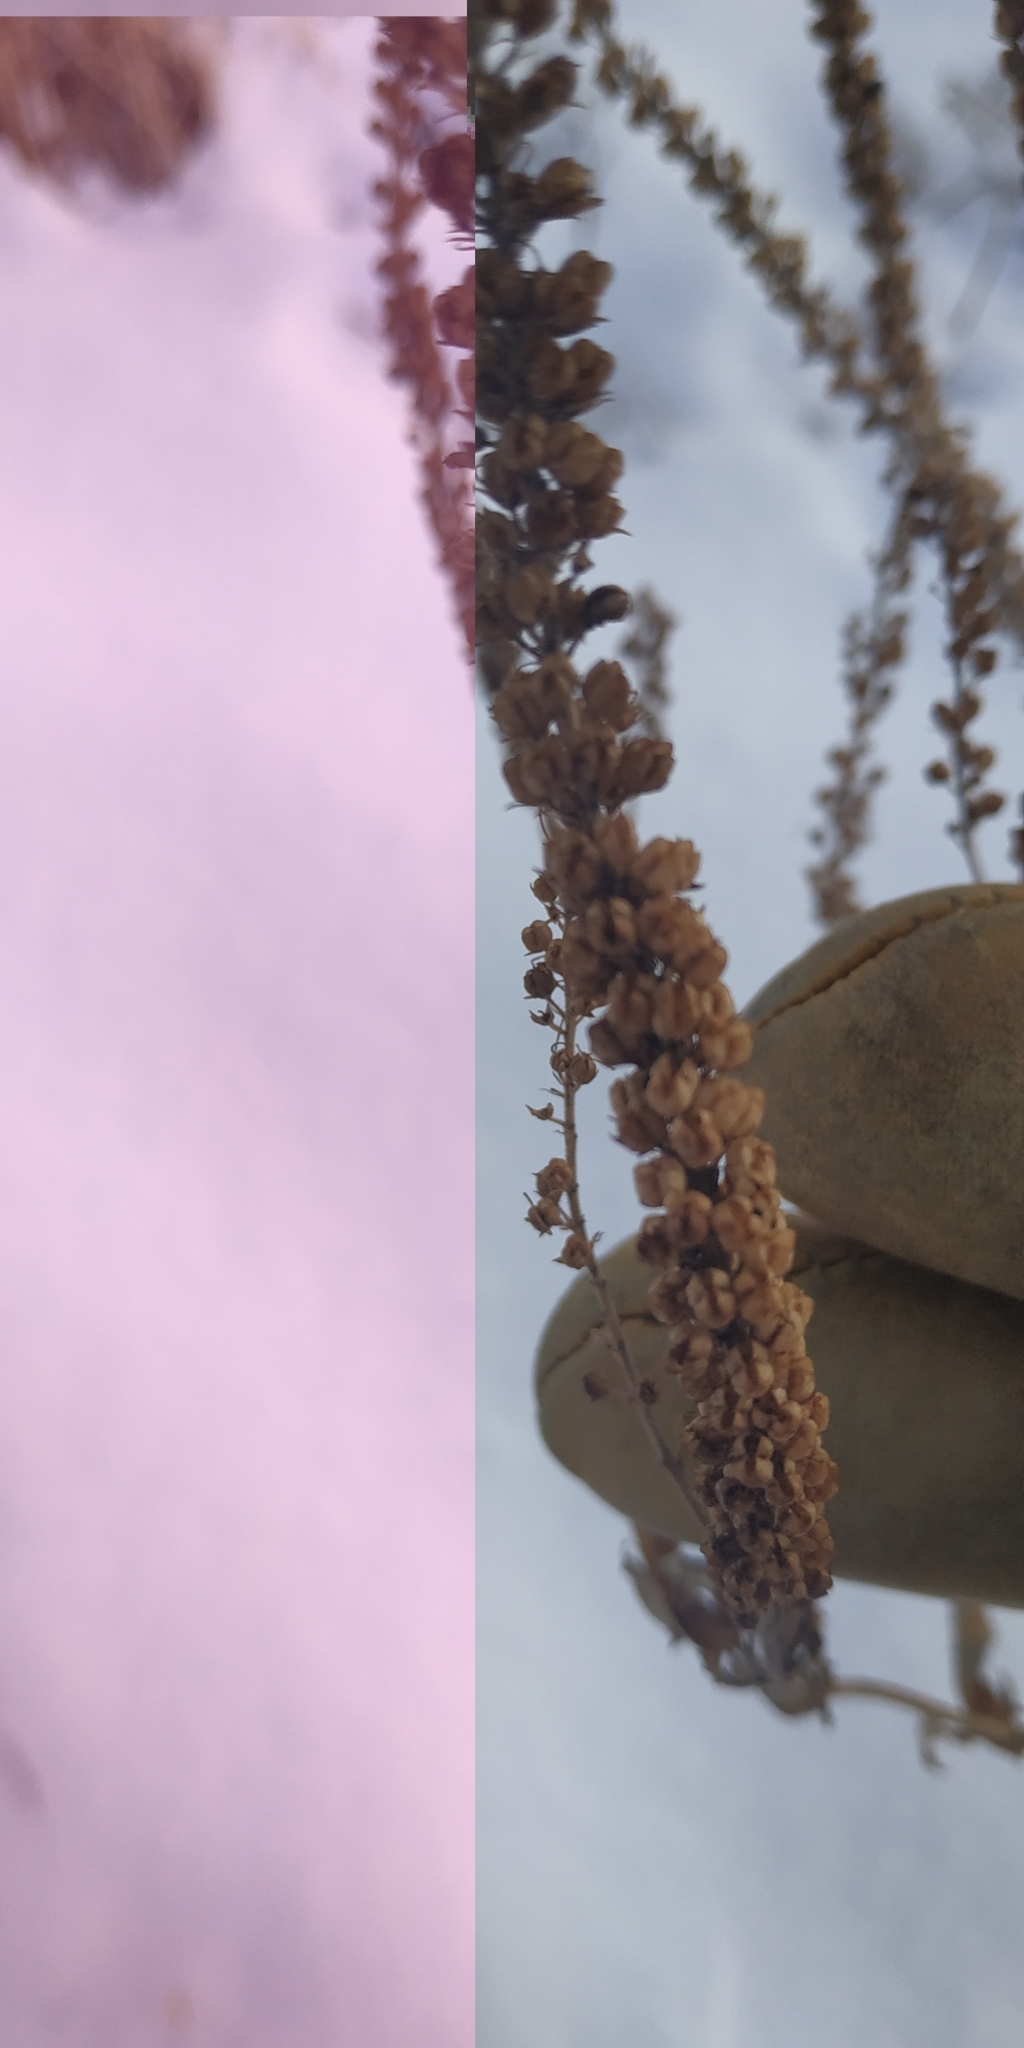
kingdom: Plantae
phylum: Tracheophyta
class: Magnoliopsida
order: Lamiales
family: Plantaginaceae
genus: Veronica
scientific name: Veronica longifolia
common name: Garden speedwell
